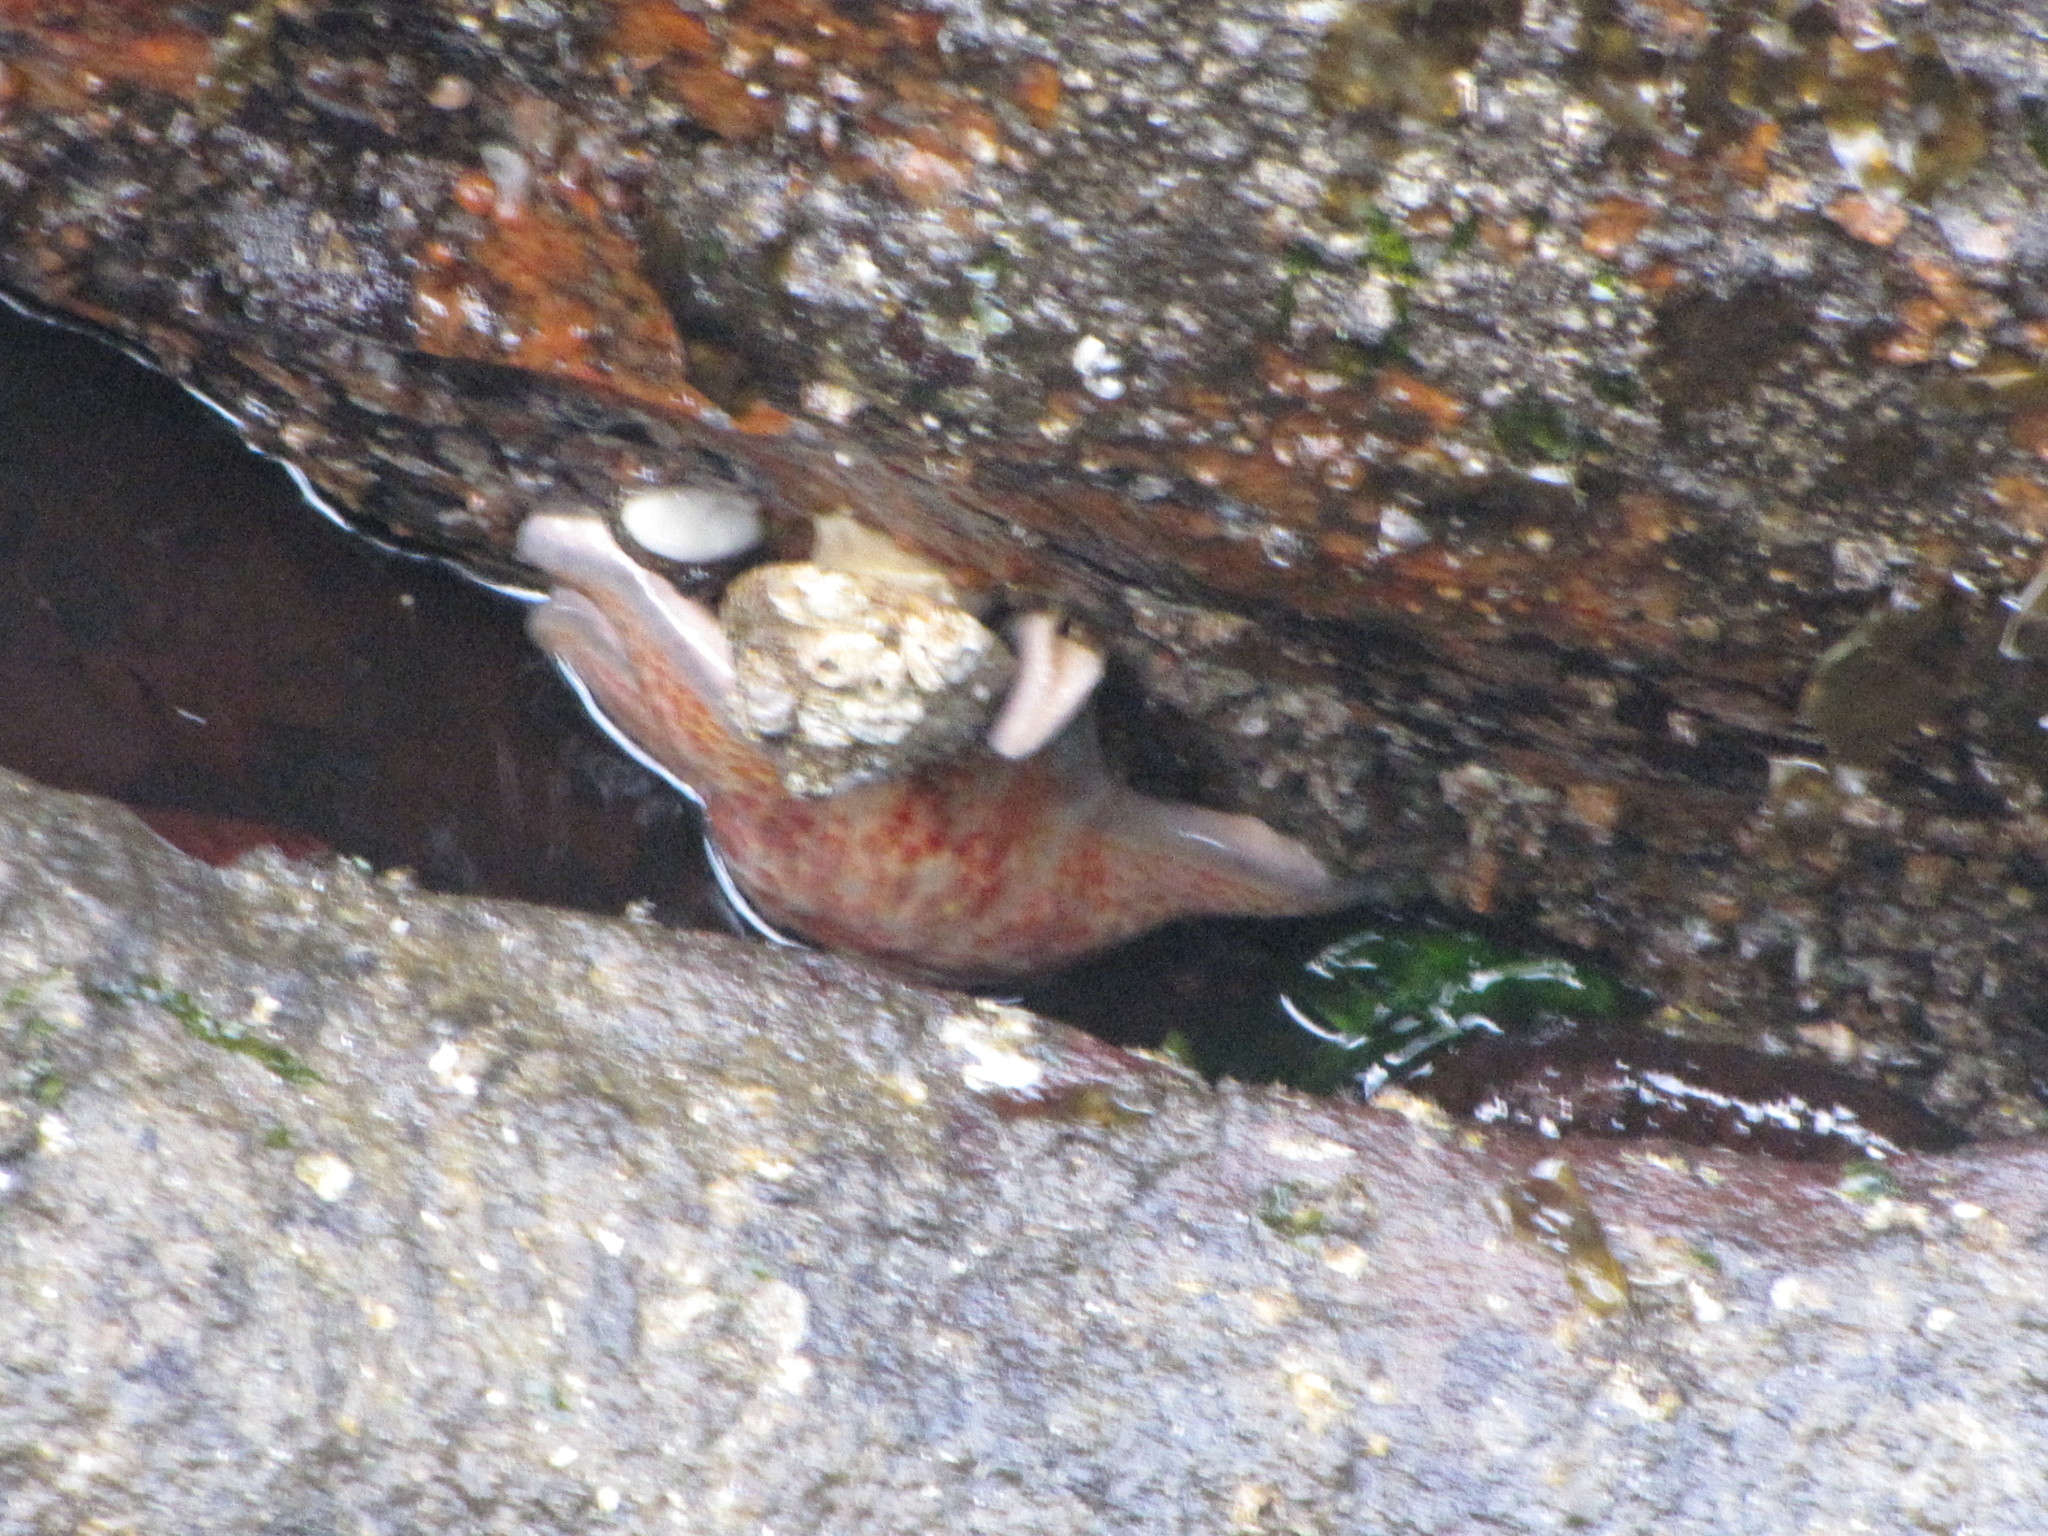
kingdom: Animalia
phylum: Echinodermata
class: Asteroidea
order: Valvatida
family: Asteropseidae
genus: Dermasterias
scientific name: Dermasterias imbricata
